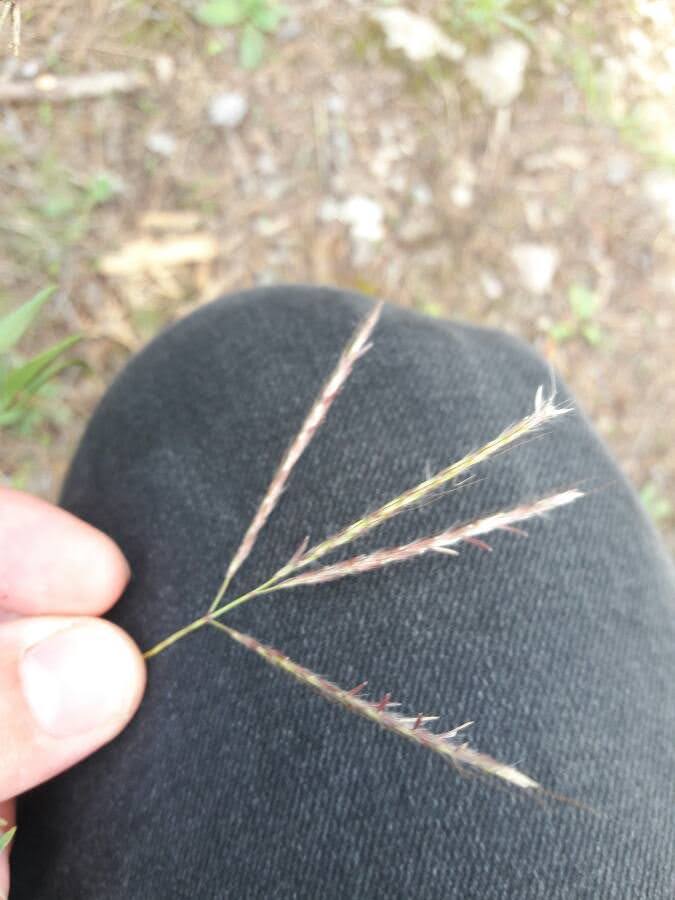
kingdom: Plantae
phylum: Tracheophyta
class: Liliopsida
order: Poales
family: Poaceae
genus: Bothriochloa
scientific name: Bothriochloa ischaemum
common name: Yellow bluestem
